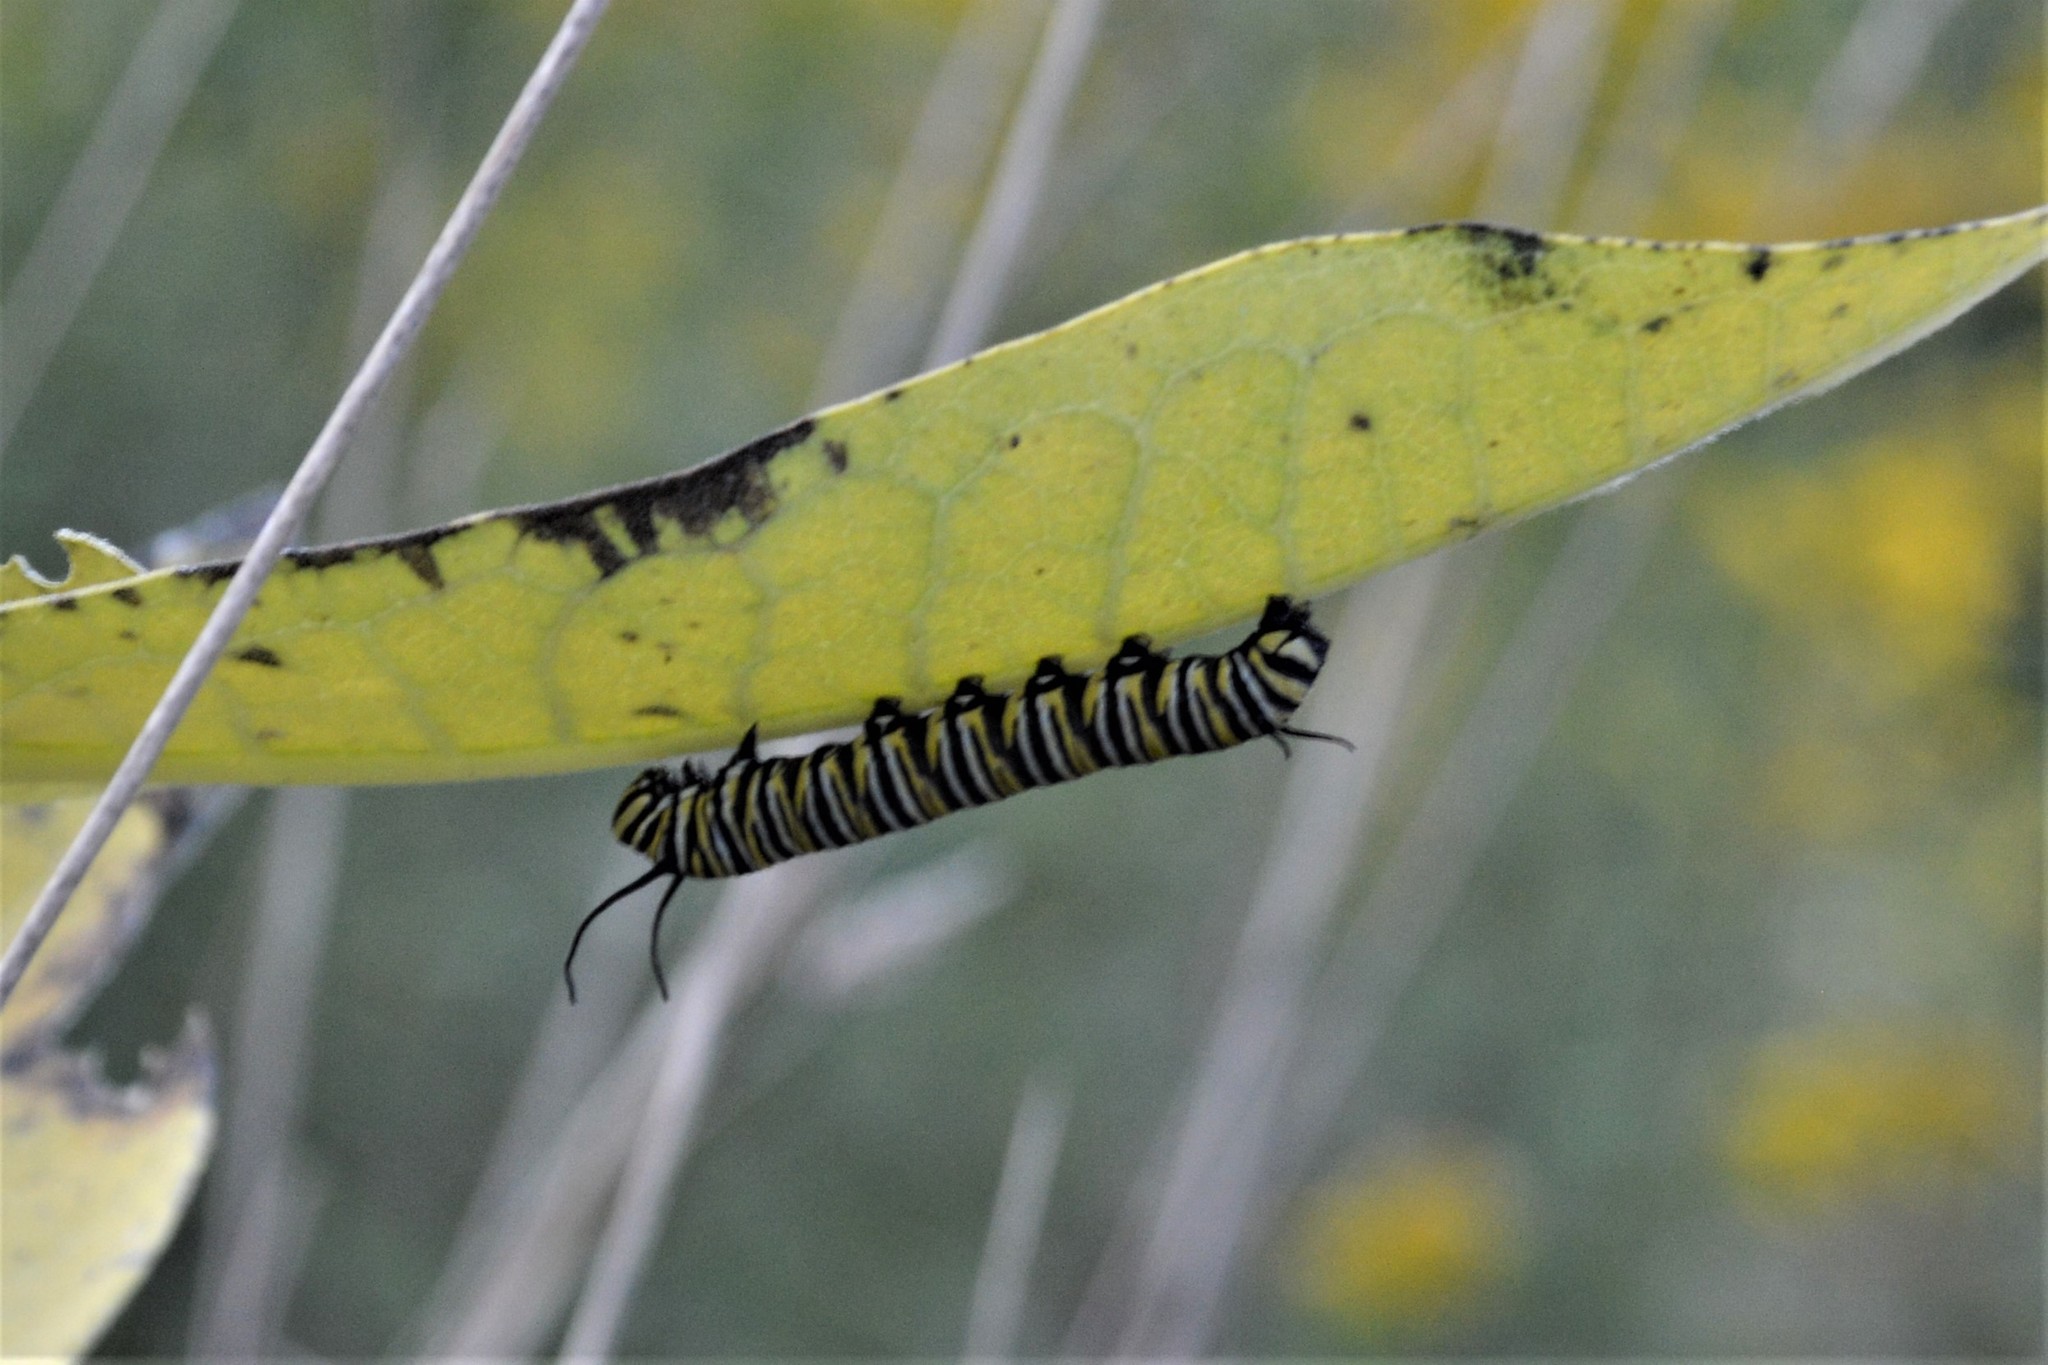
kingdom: Animalia
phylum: Arthropoda
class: Insecta
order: Lepidoptera
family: Nymphalidae
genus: Danaus
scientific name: Danaus plexippus
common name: Monarch
